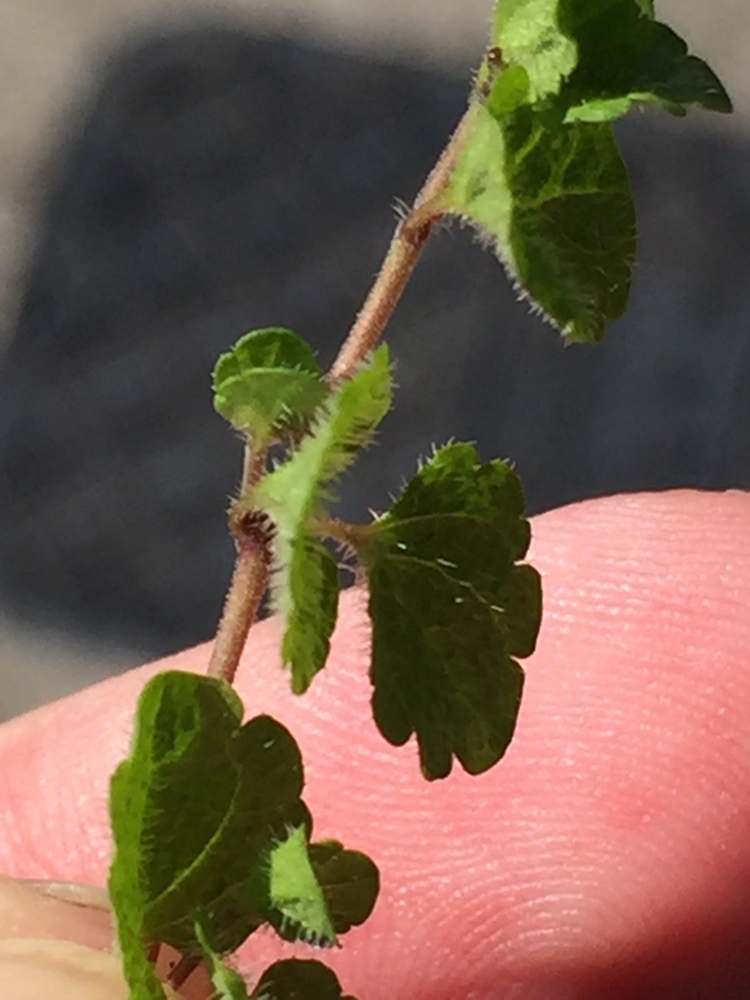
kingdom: Plantae
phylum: Tracheophyta
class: Magnoliopsida
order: Lamiales
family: Plantaginaceae
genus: Veronica
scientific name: Veronica filiformis
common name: Slender speedwell
